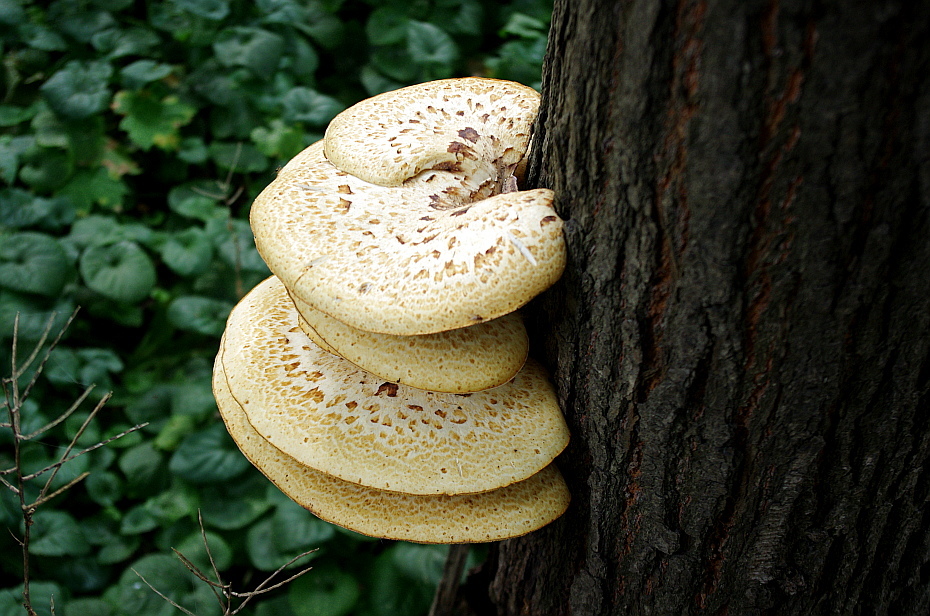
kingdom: Fungi
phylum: Basidiomycota
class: Agaricomycetes
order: Polyporales
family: Polyporaceae
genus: Cerioporus
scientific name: Cerioporus squamosus
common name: Dryad's saddle
